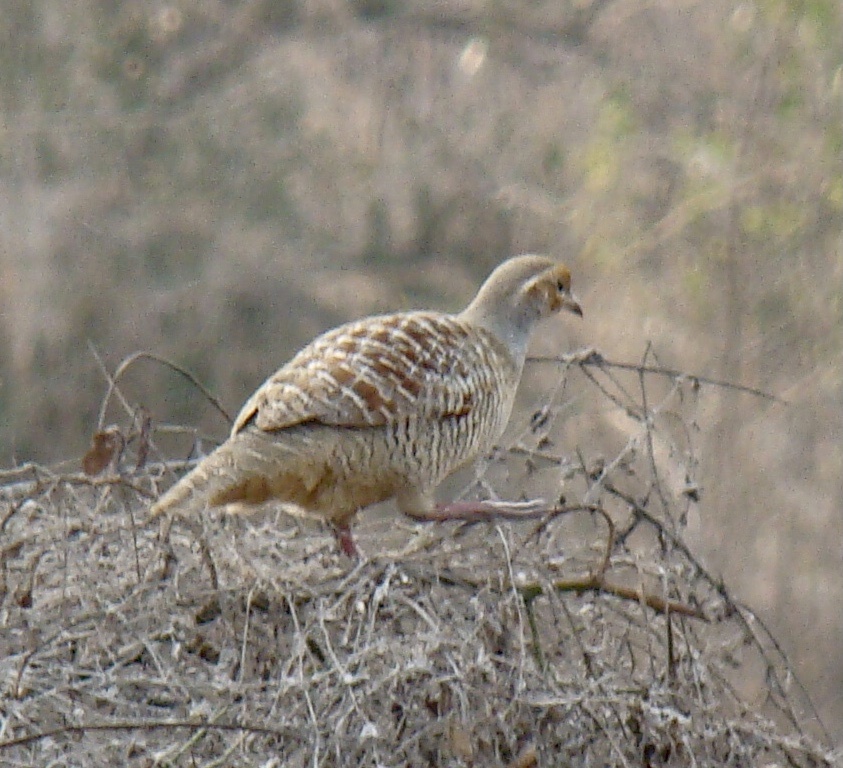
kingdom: Animalia
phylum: Chordata
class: Aves
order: Galliformes
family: Phasianidae
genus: Ortygornis
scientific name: Ortygornis pondicerianus
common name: Grey francolin
